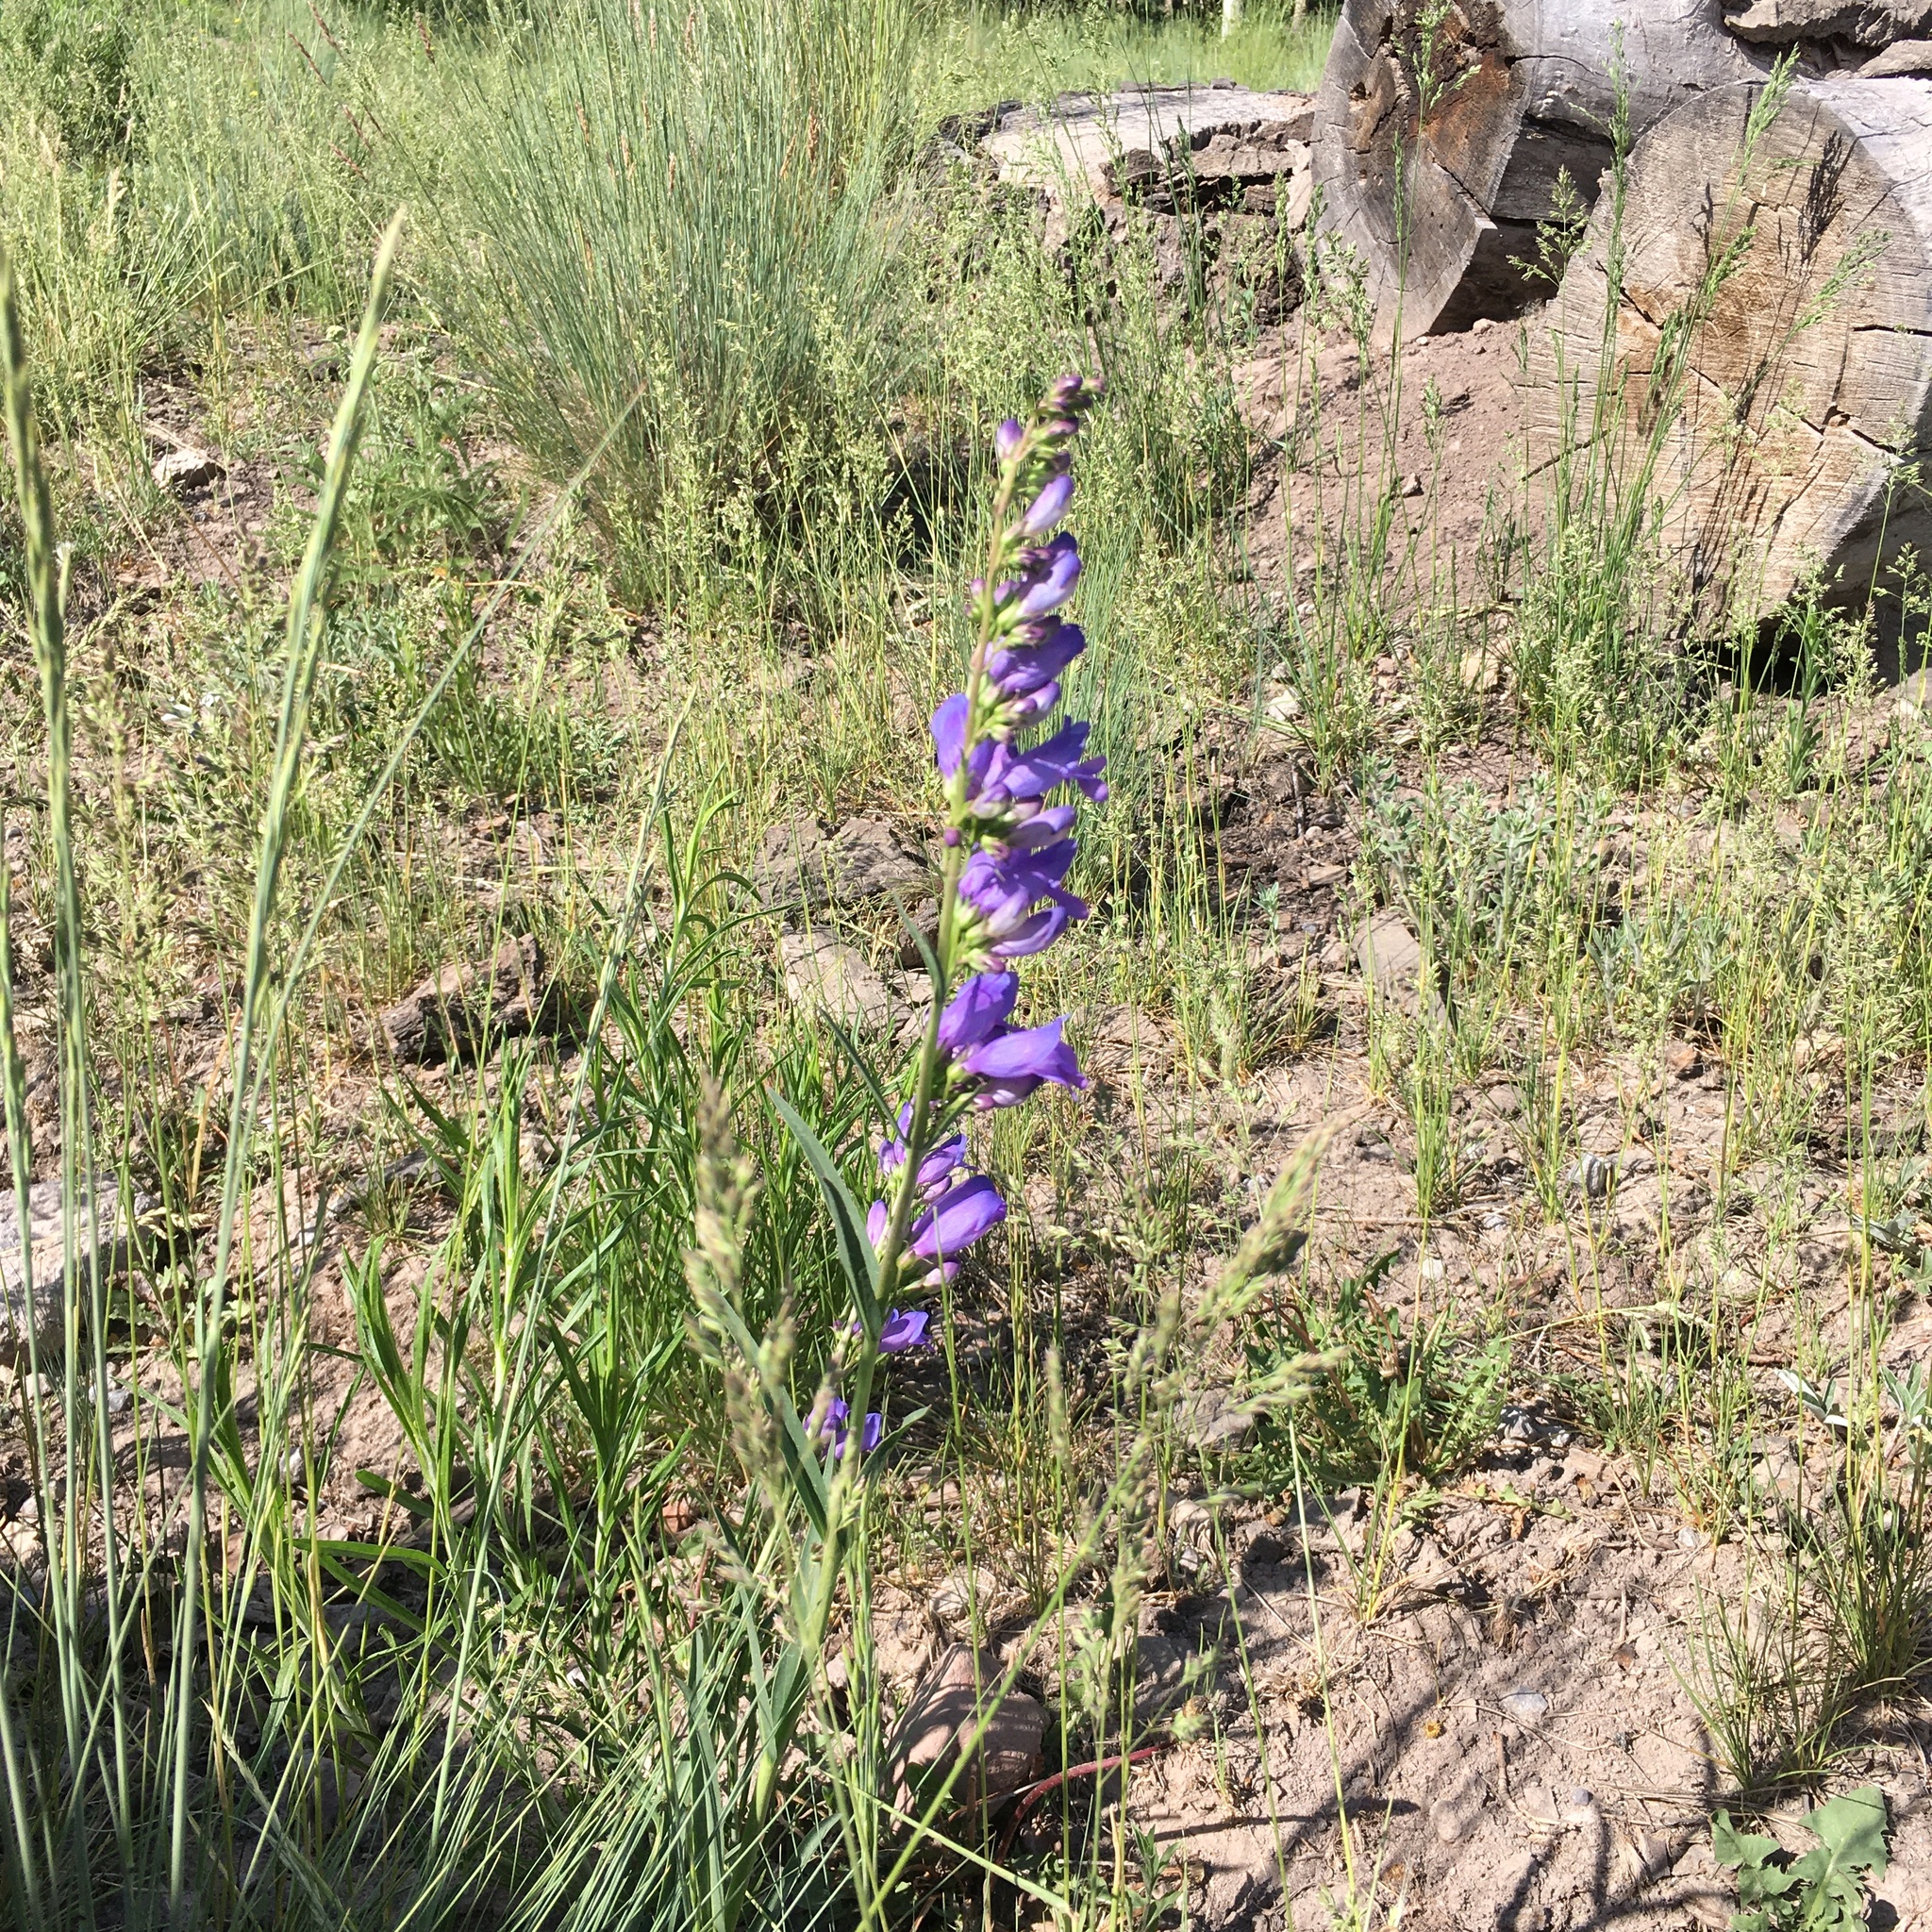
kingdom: Plantae
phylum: Tracheophyta
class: Magnoliopsida
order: Lamiales
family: Plantaginaceae
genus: Penstemon
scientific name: Penstemon strictus
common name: Rocky mountain penstemon
